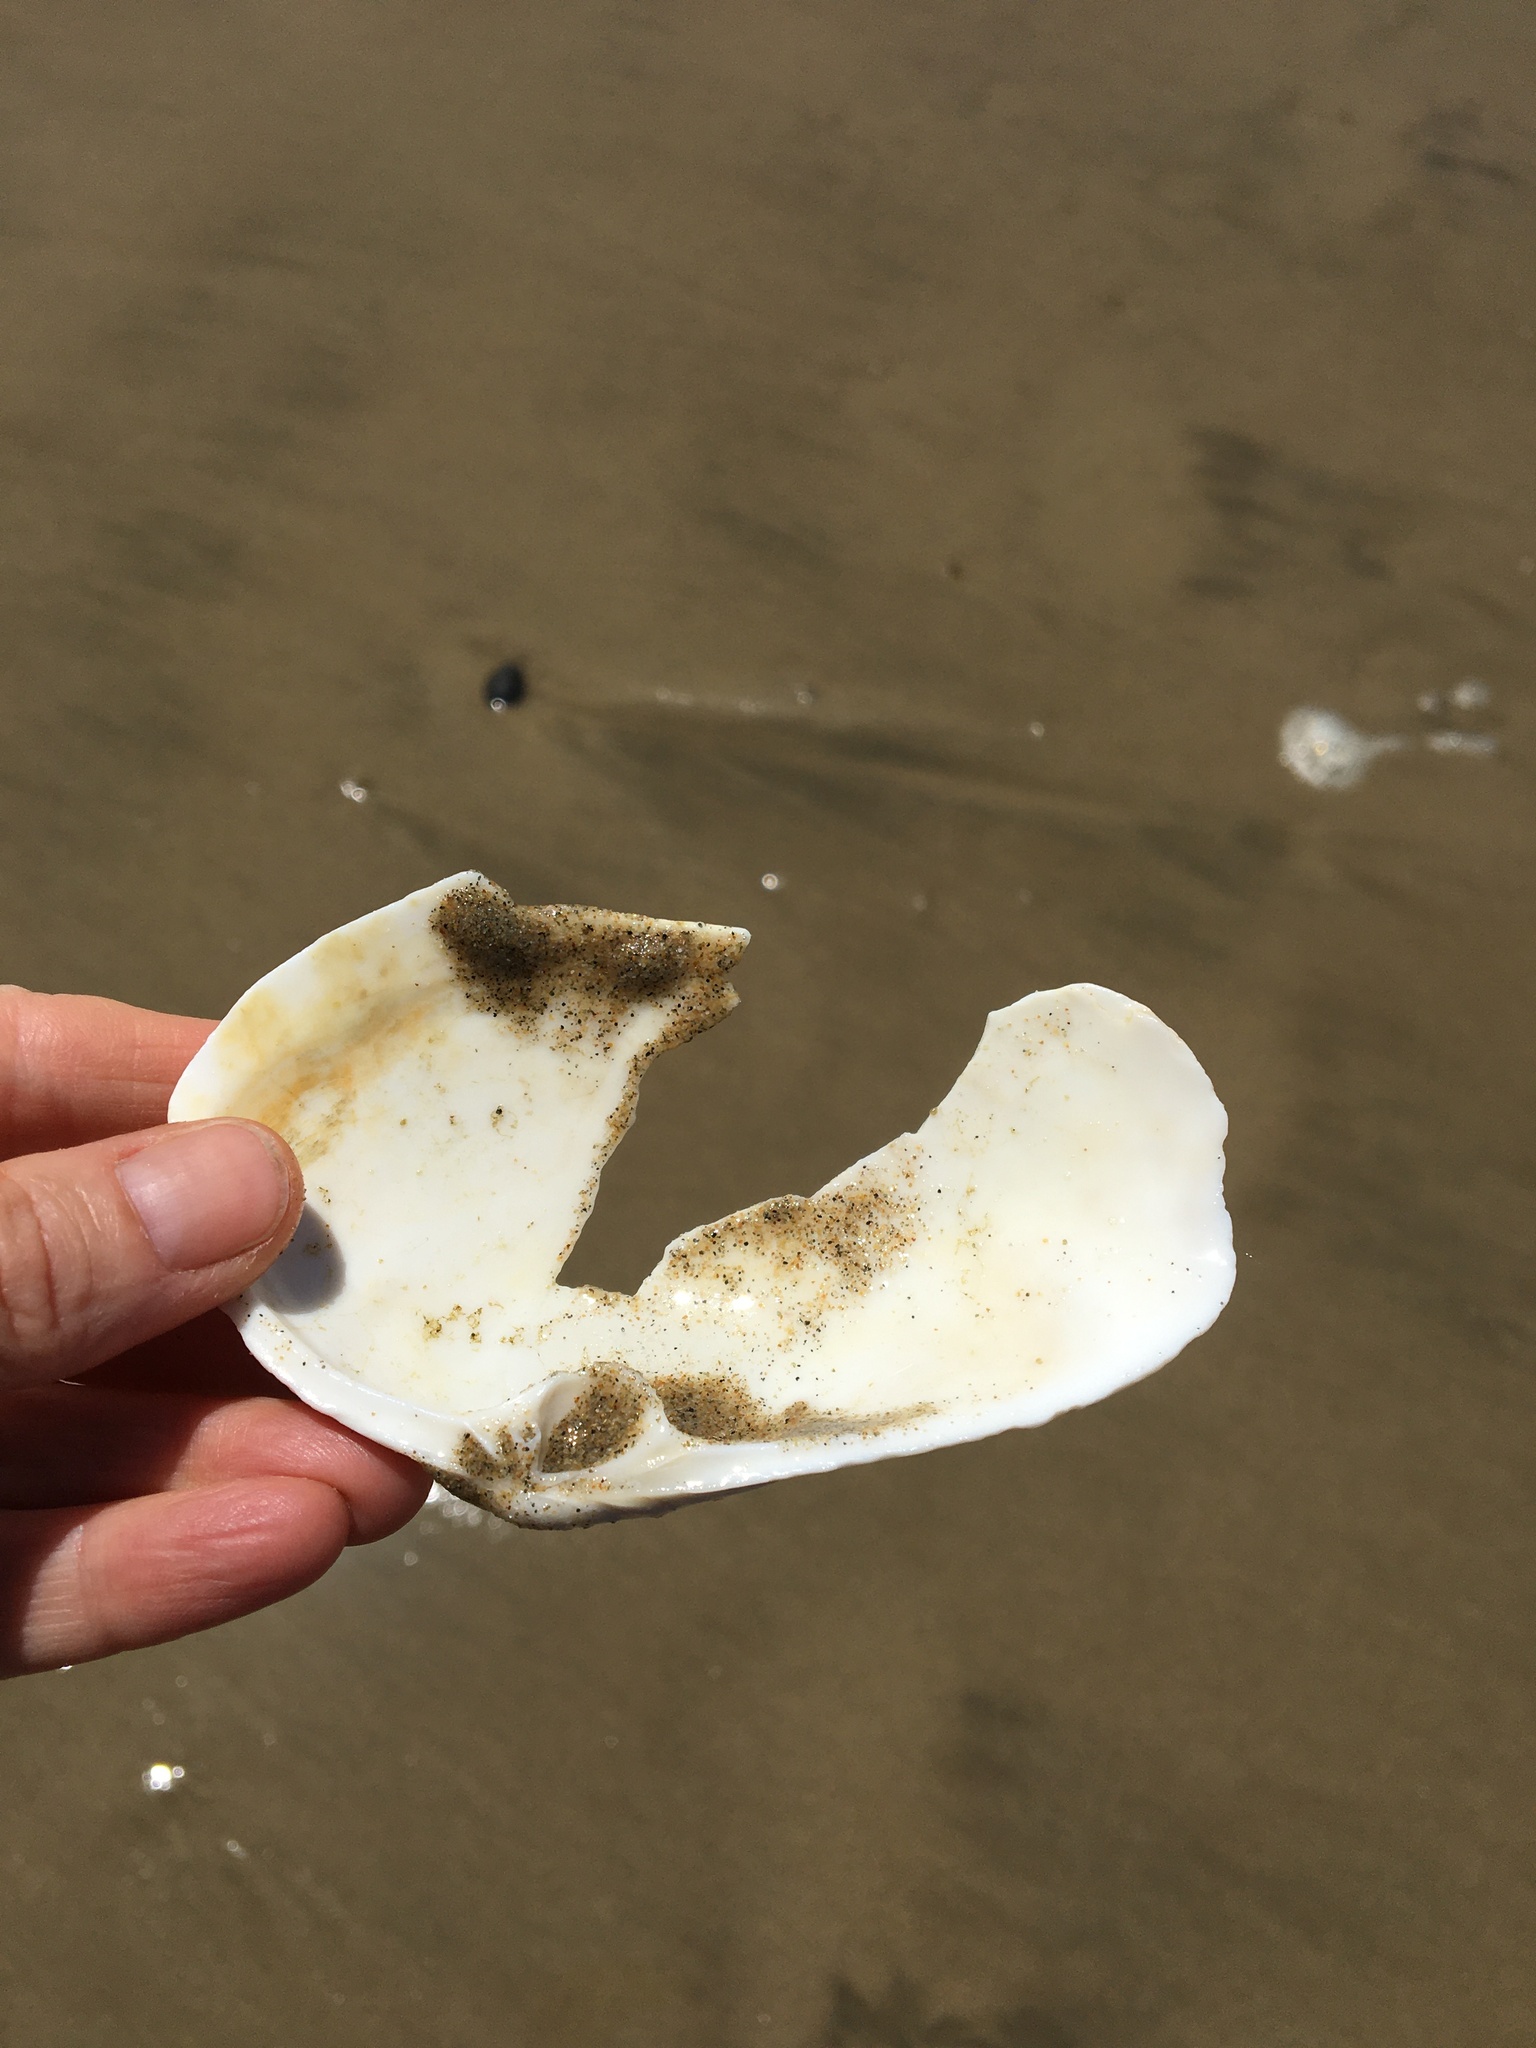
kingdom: Animalia
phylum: Mollusca
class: Bivalvia
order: Venerida
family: Mactridae
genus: Mactromeris
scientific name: Mactromeris catilliformis
